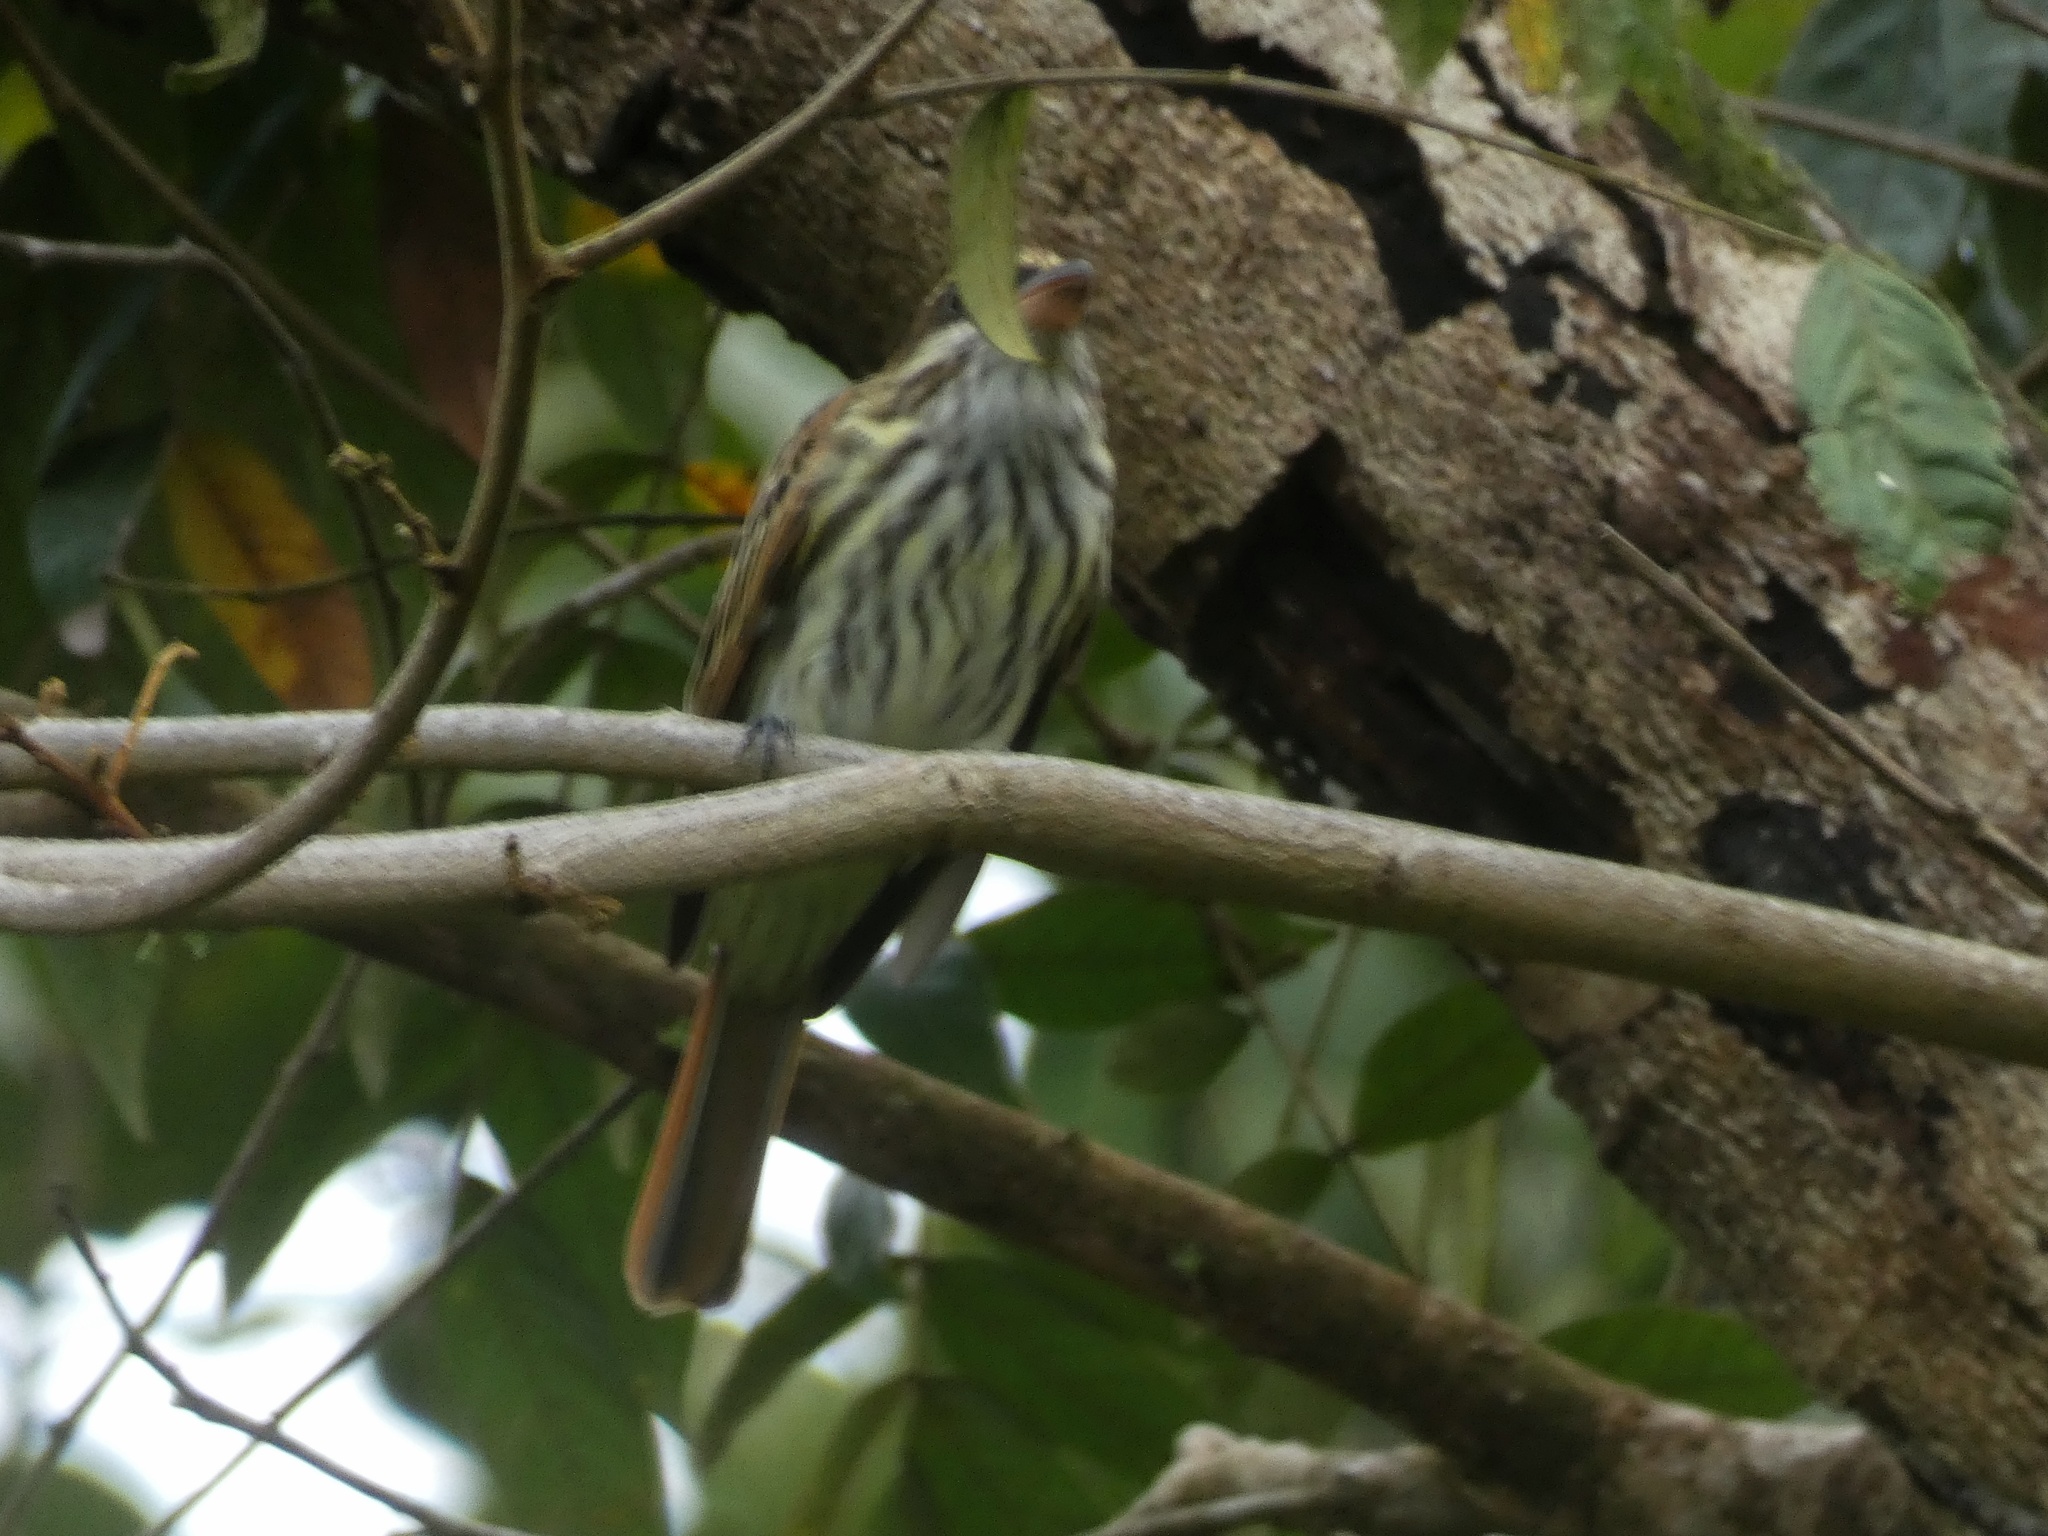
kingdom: Animalia
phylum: Chordata
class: Aves
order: Passeriformes
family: Tyrannidae
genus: Myiodynastes
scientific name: Myiodynastes maculatus
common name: Streaked flycatcher
